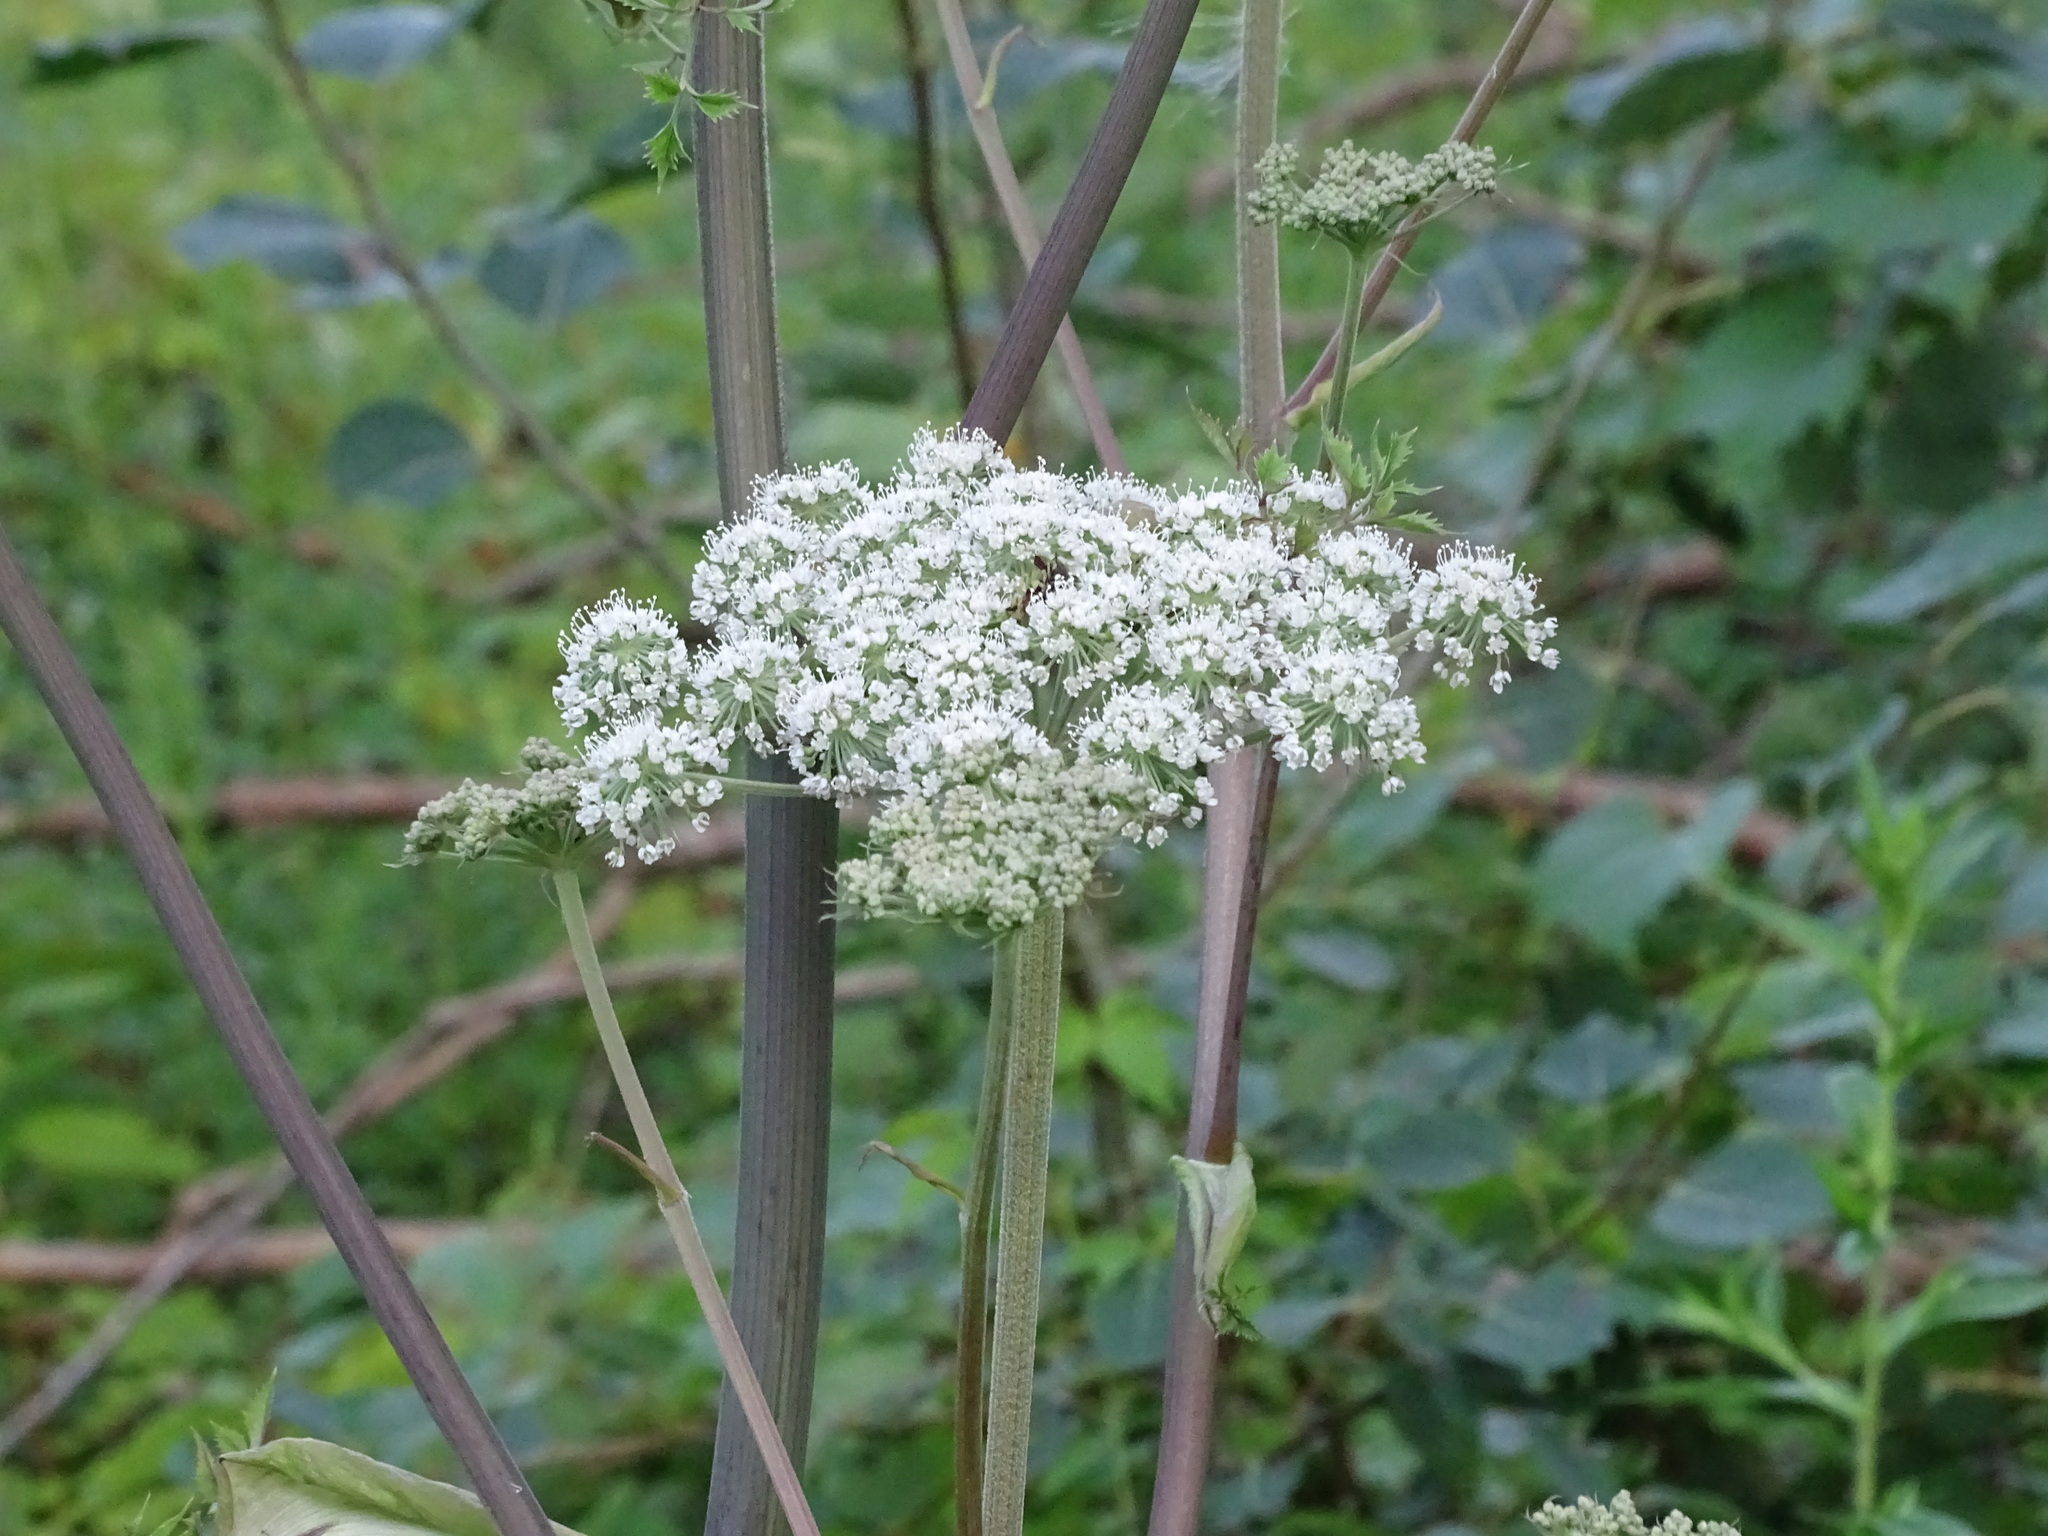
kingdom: Plantae
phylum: Tracheophyta
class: Magnoliopsida
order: Apiales
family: Apiaceae
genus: Angelica
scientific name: Angelica sylvestris
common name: Wild angelica
